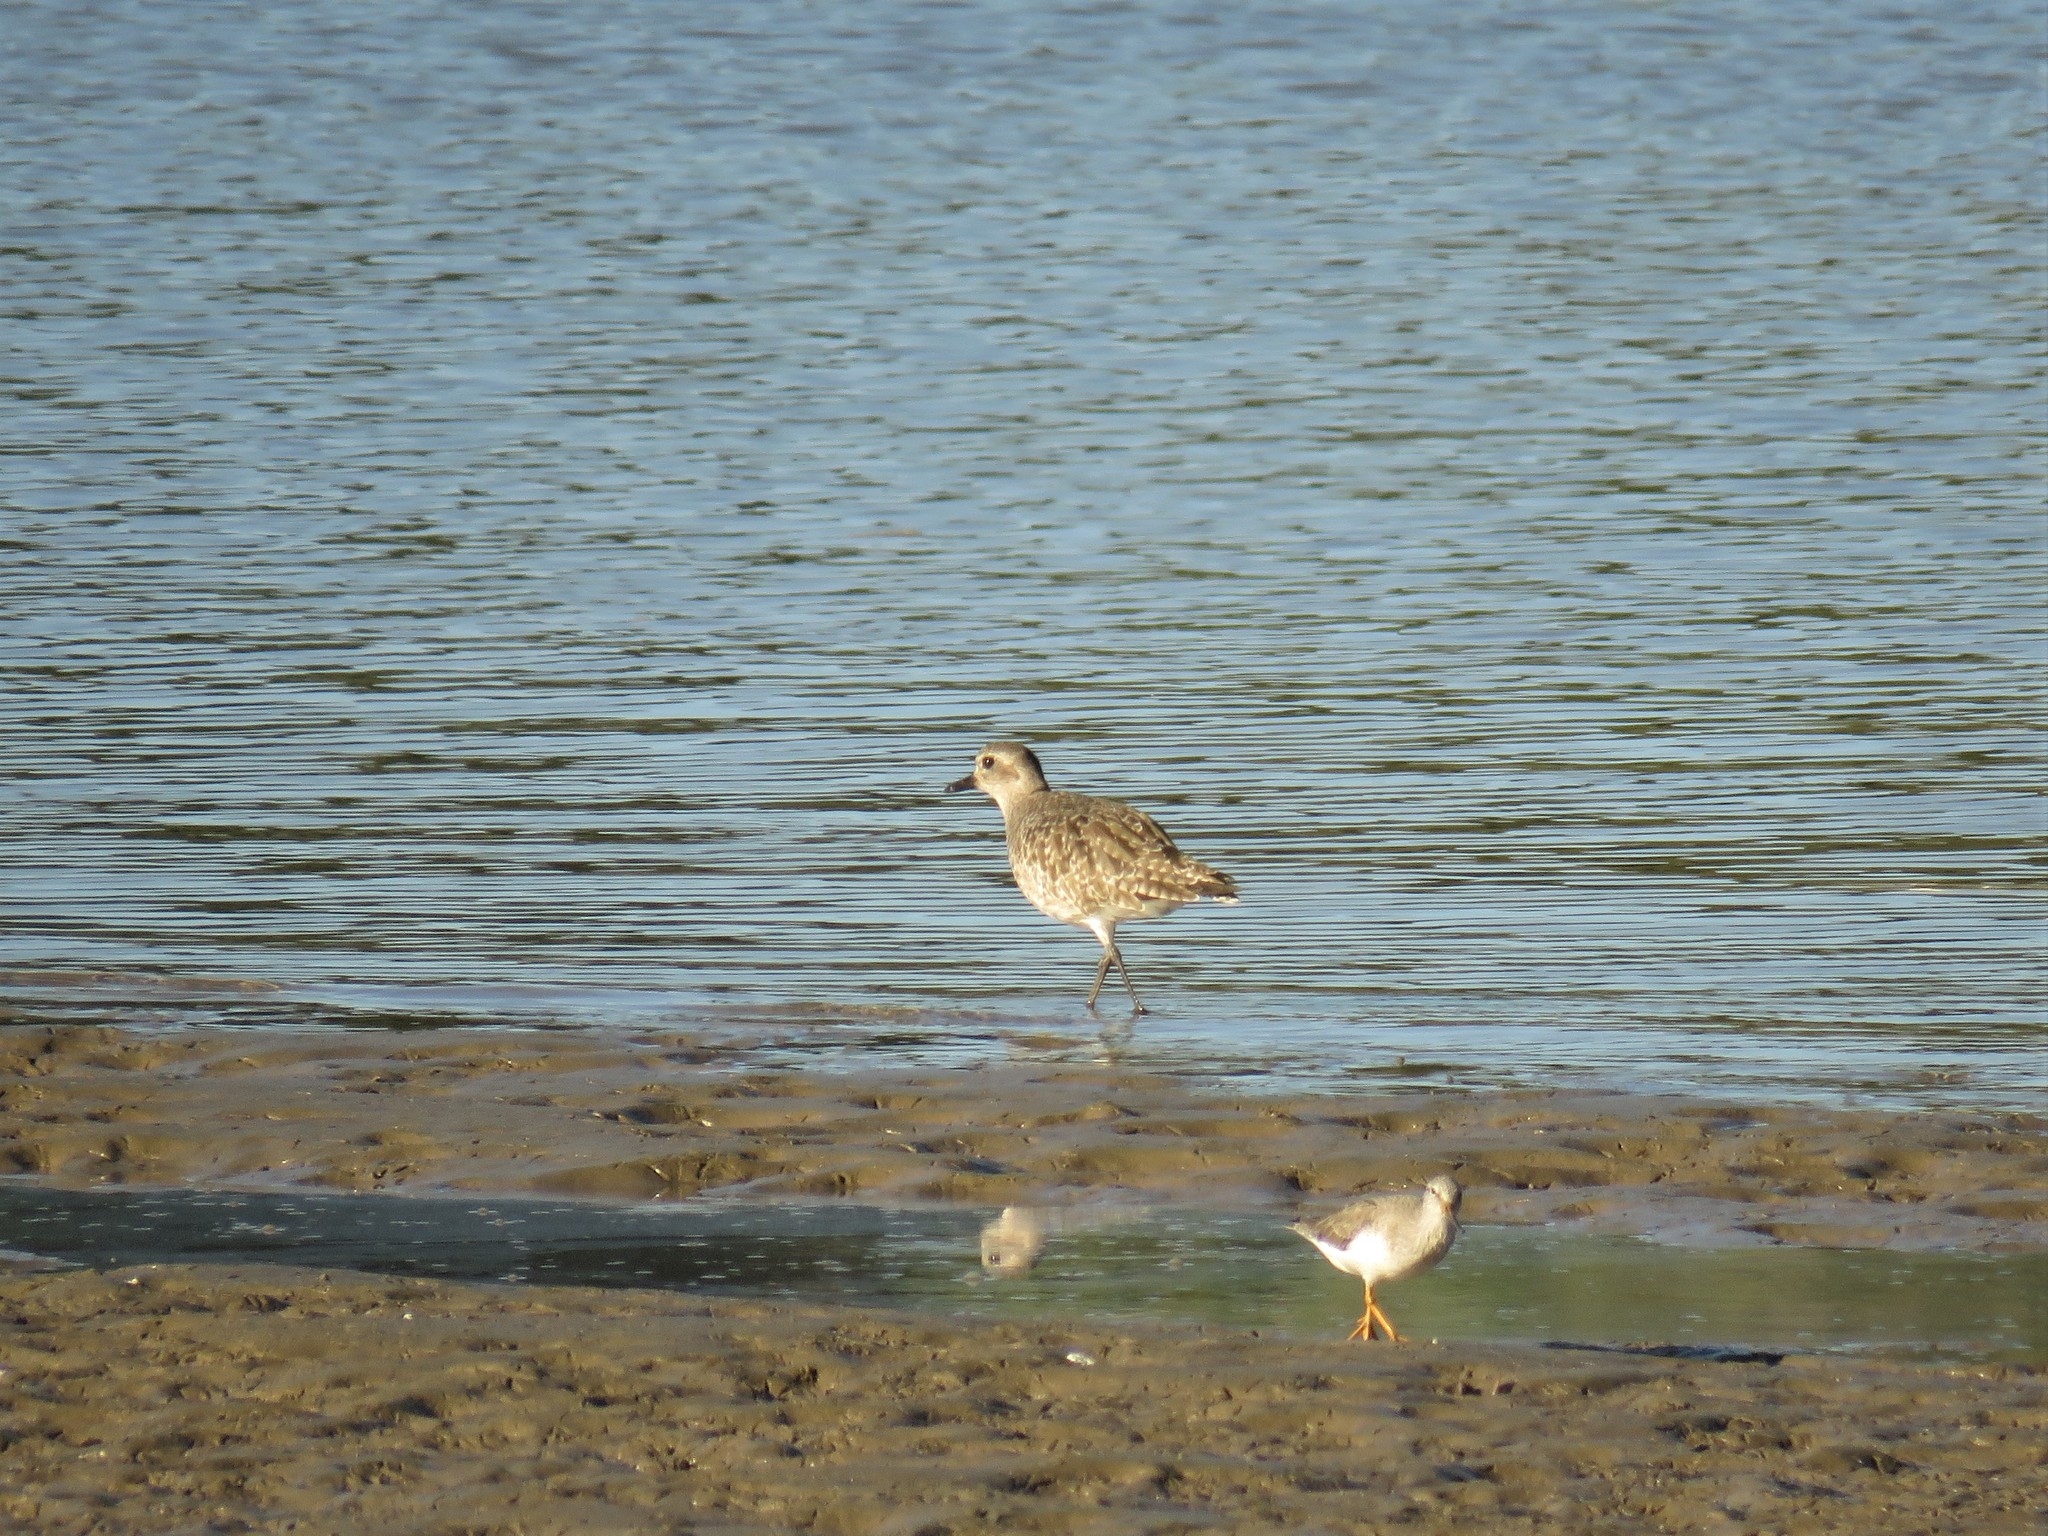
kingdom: Animalia
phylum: Chordata
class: Aves
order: Charadriiformes
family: Charadriidae
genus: Pluvialis
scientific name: Pluvialis squatarola
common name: Grey plover
